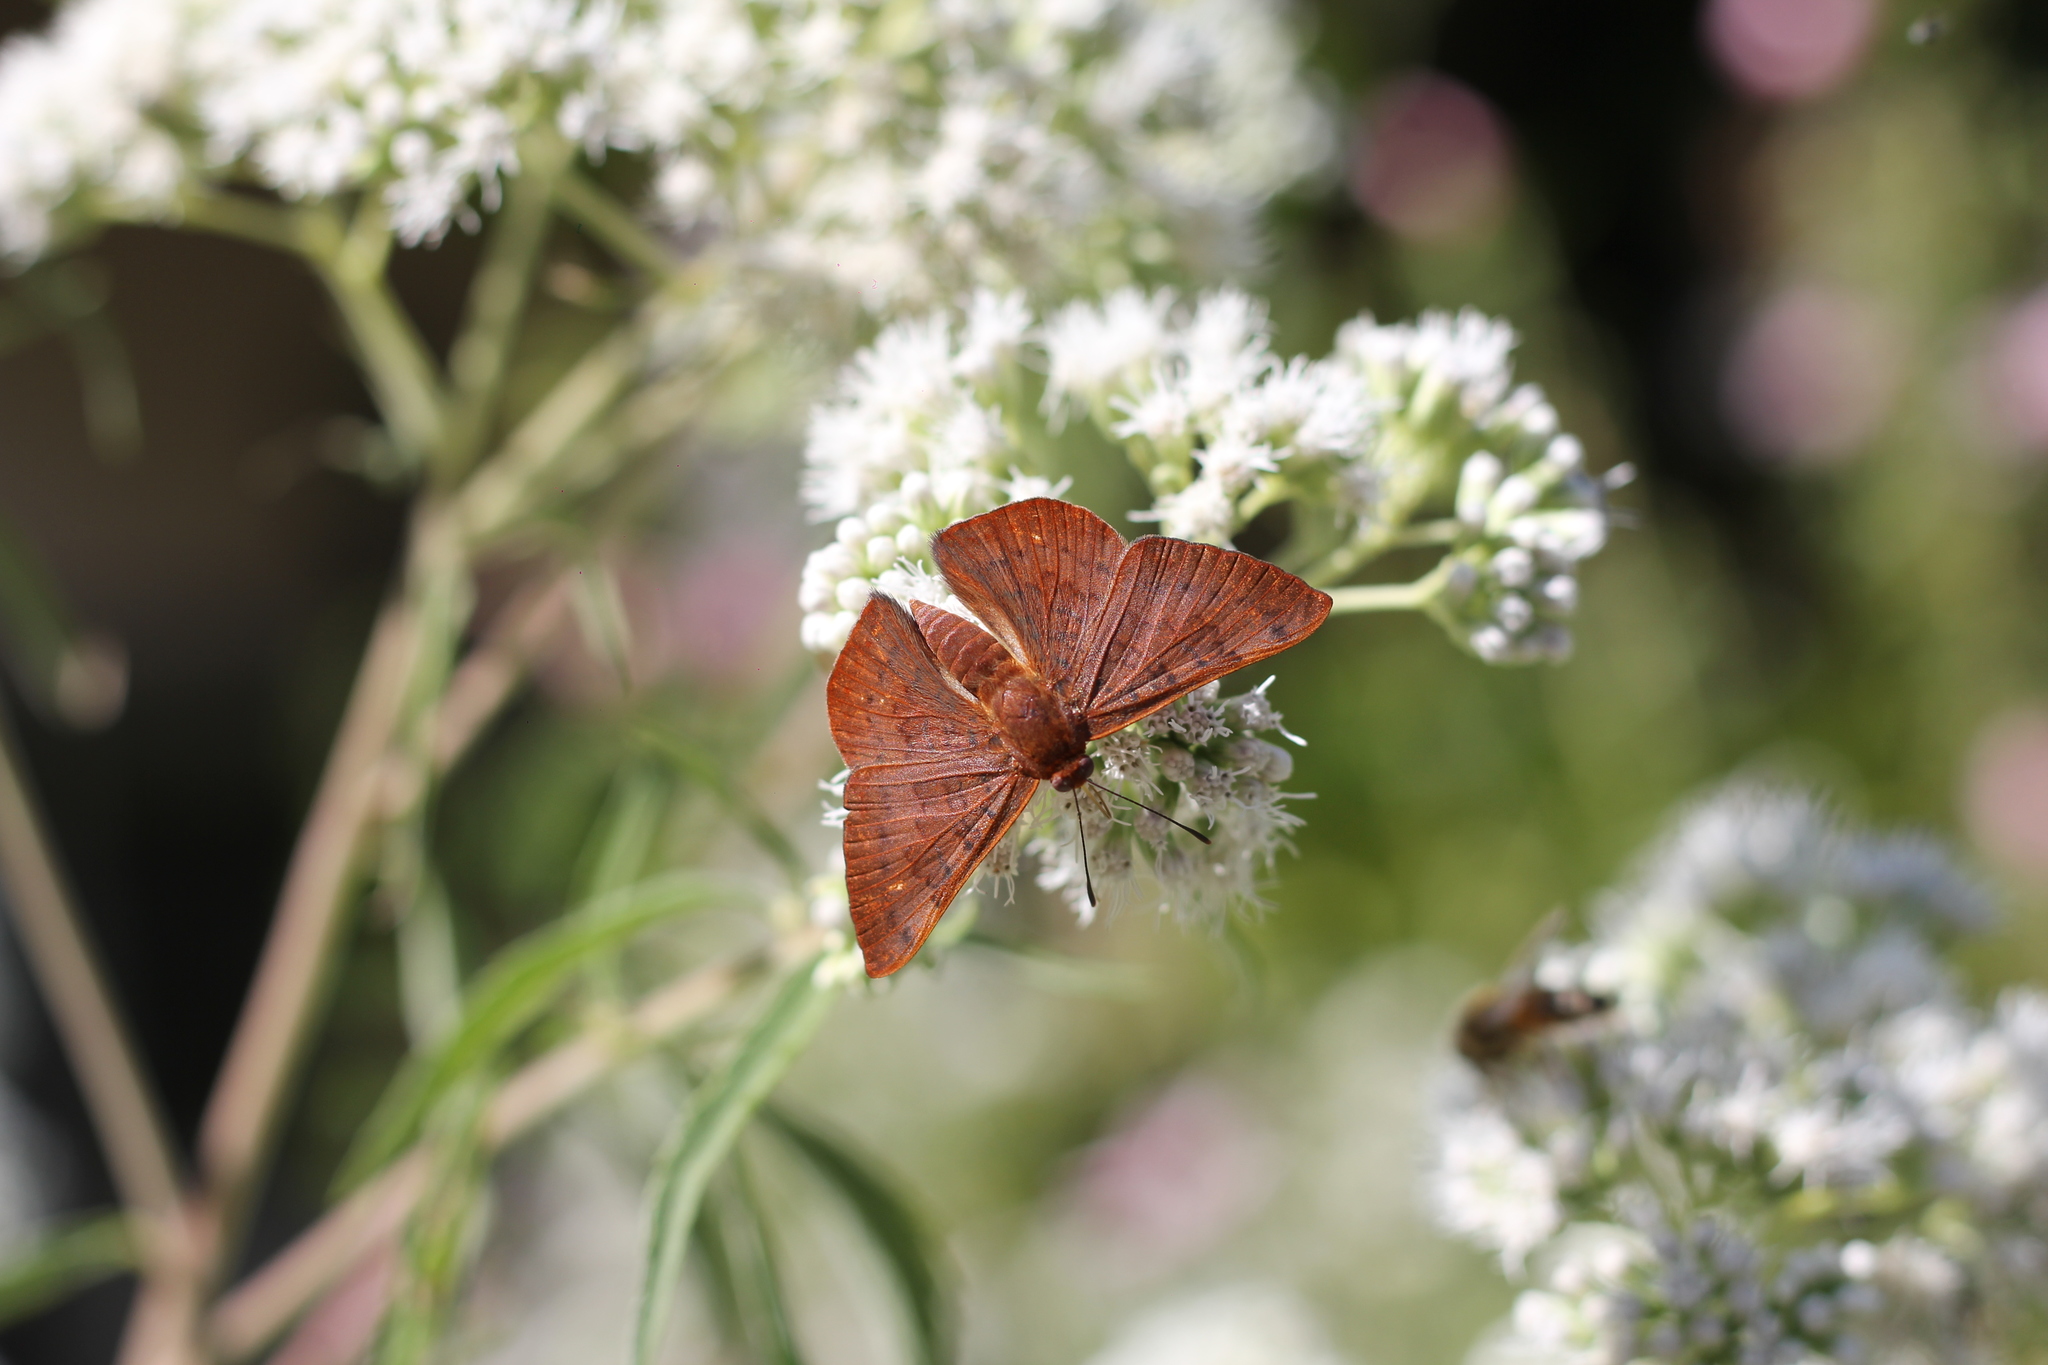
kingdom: Animalia
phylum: Arthropoda
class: Insecta
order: Lepidoptera
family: Lycaenidae
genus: Emesis
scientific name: Emesis russula
